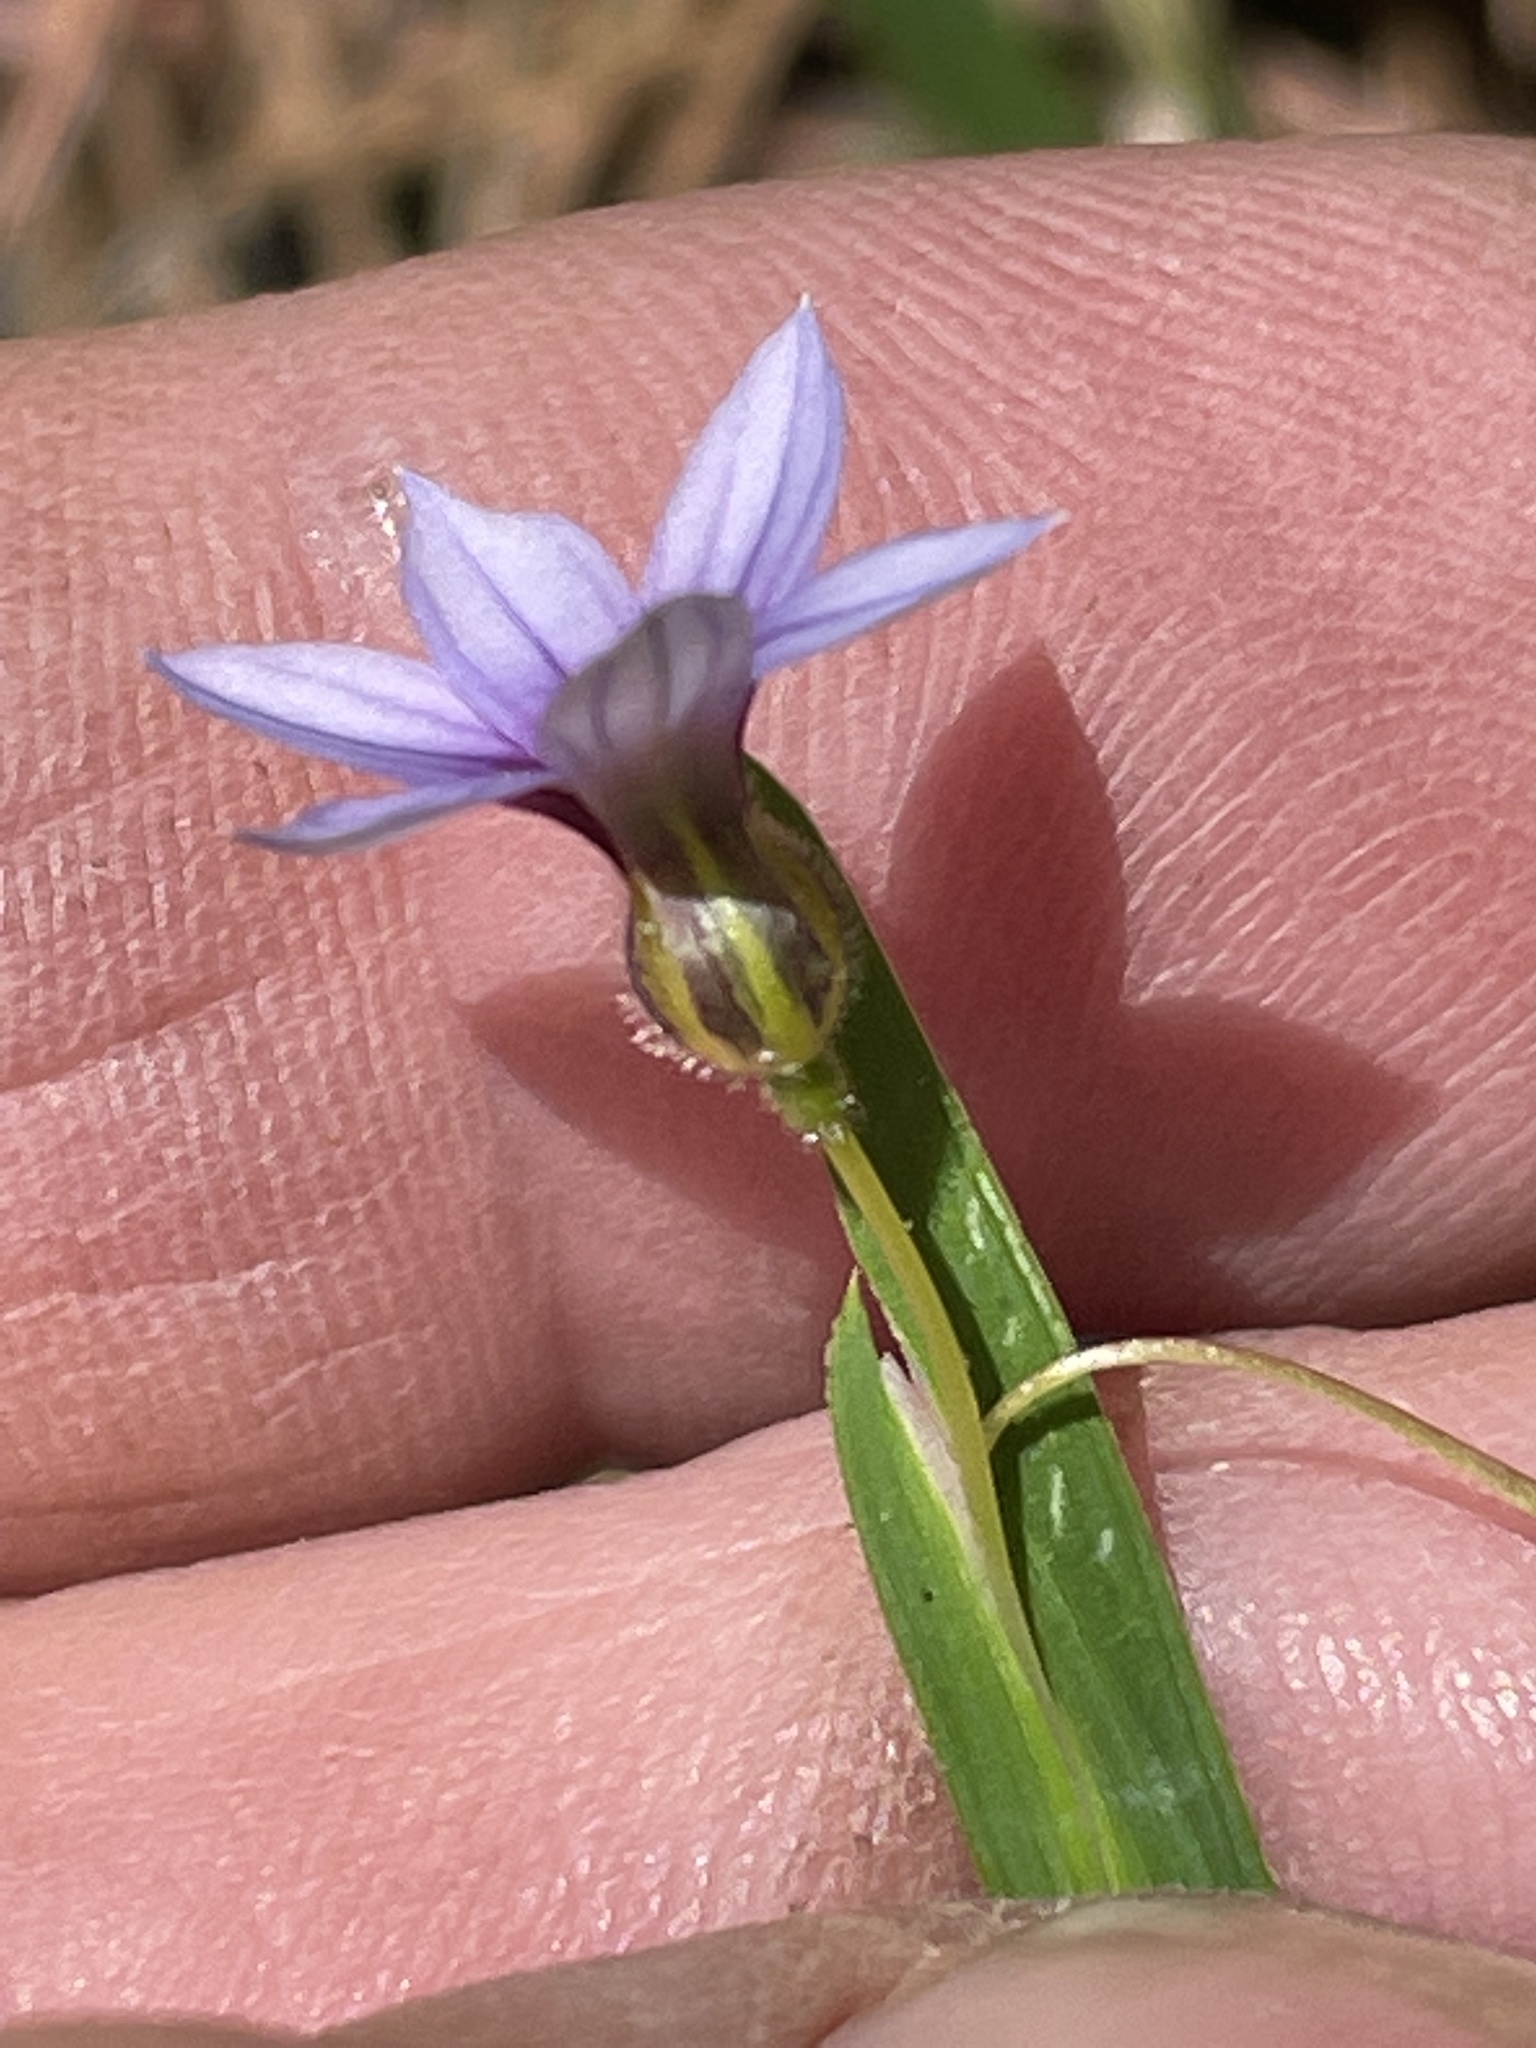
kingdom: Plantae
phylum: Tracheophyta
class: Liliopsida
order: Asparagales
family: Iridaceae
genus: Sisyrinchium
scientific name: Sisyrinchium micranthum
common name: Bermuda pigroot
